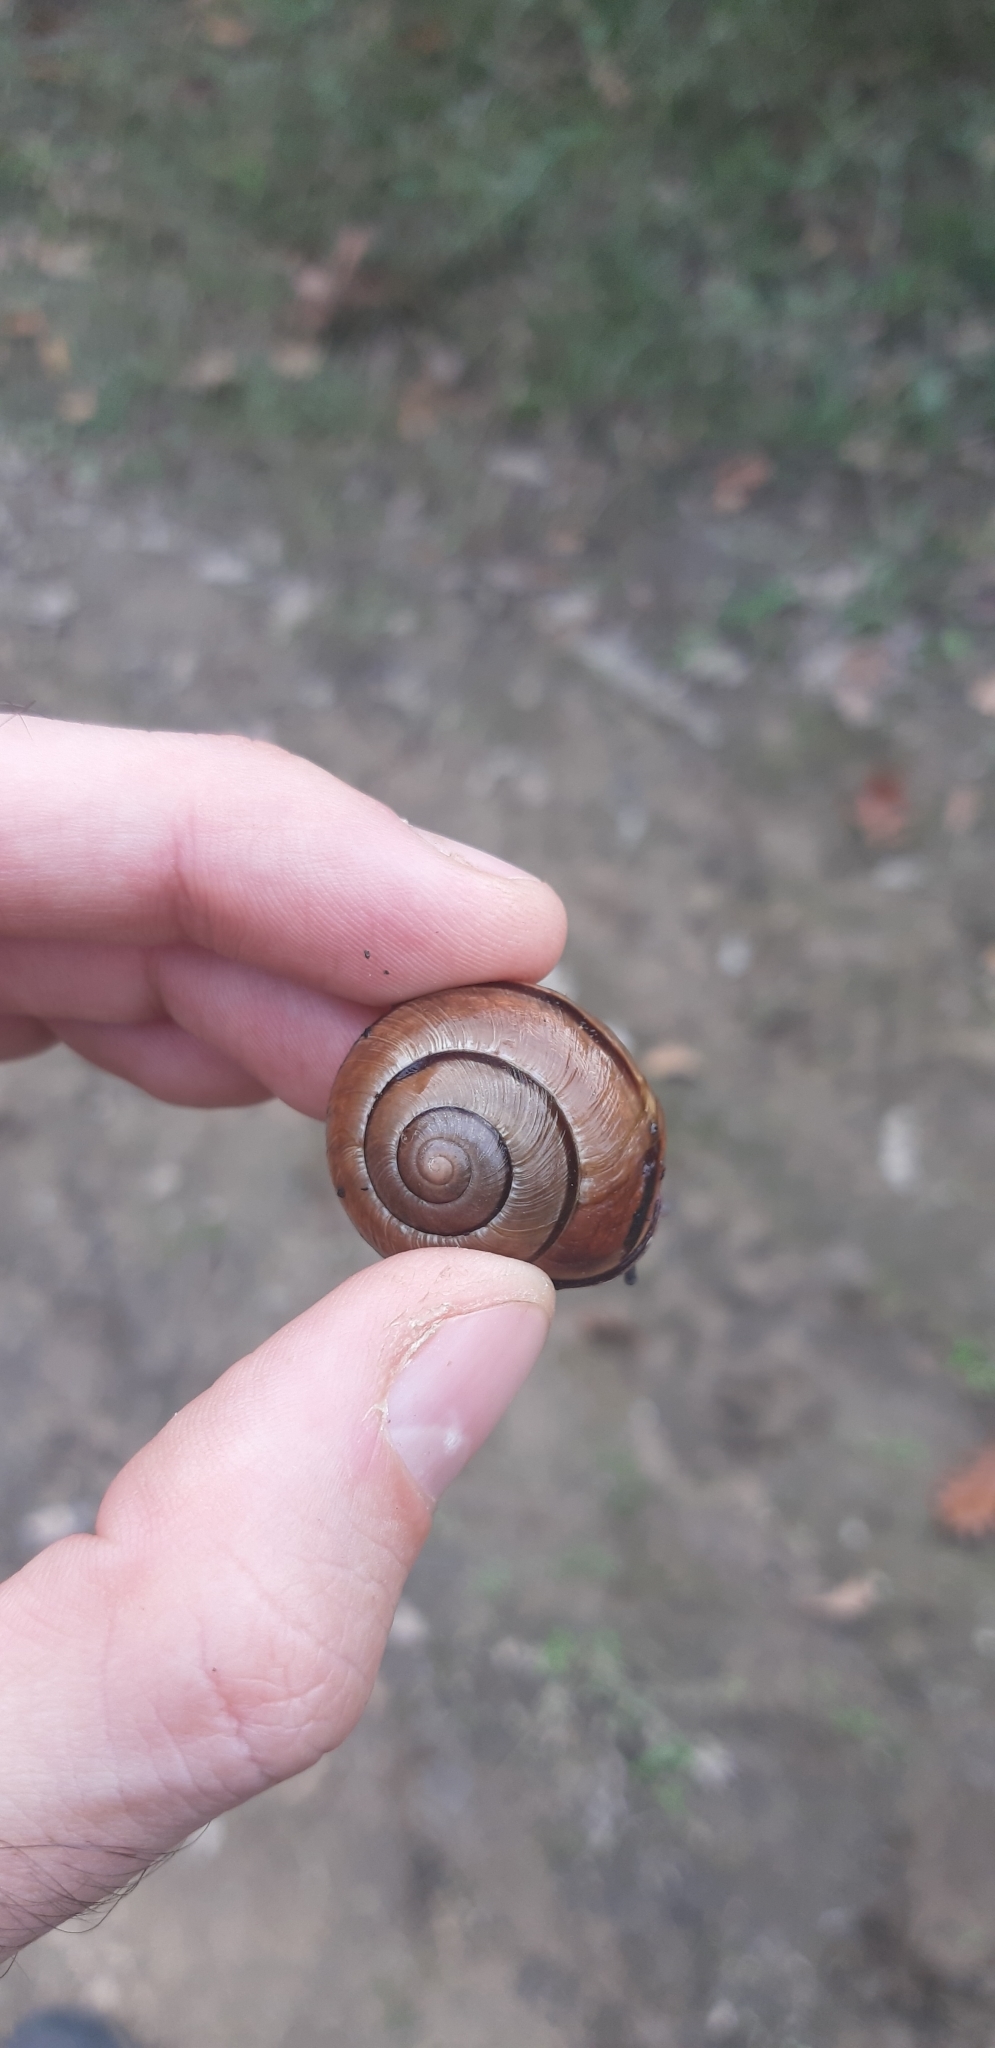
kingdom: Animalia
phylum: Mollusca
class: Gastropoda
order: Stylommatophora
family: Helicidae
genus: Cepaea
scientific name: Cepaea nemoralis
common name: Grovesnail
